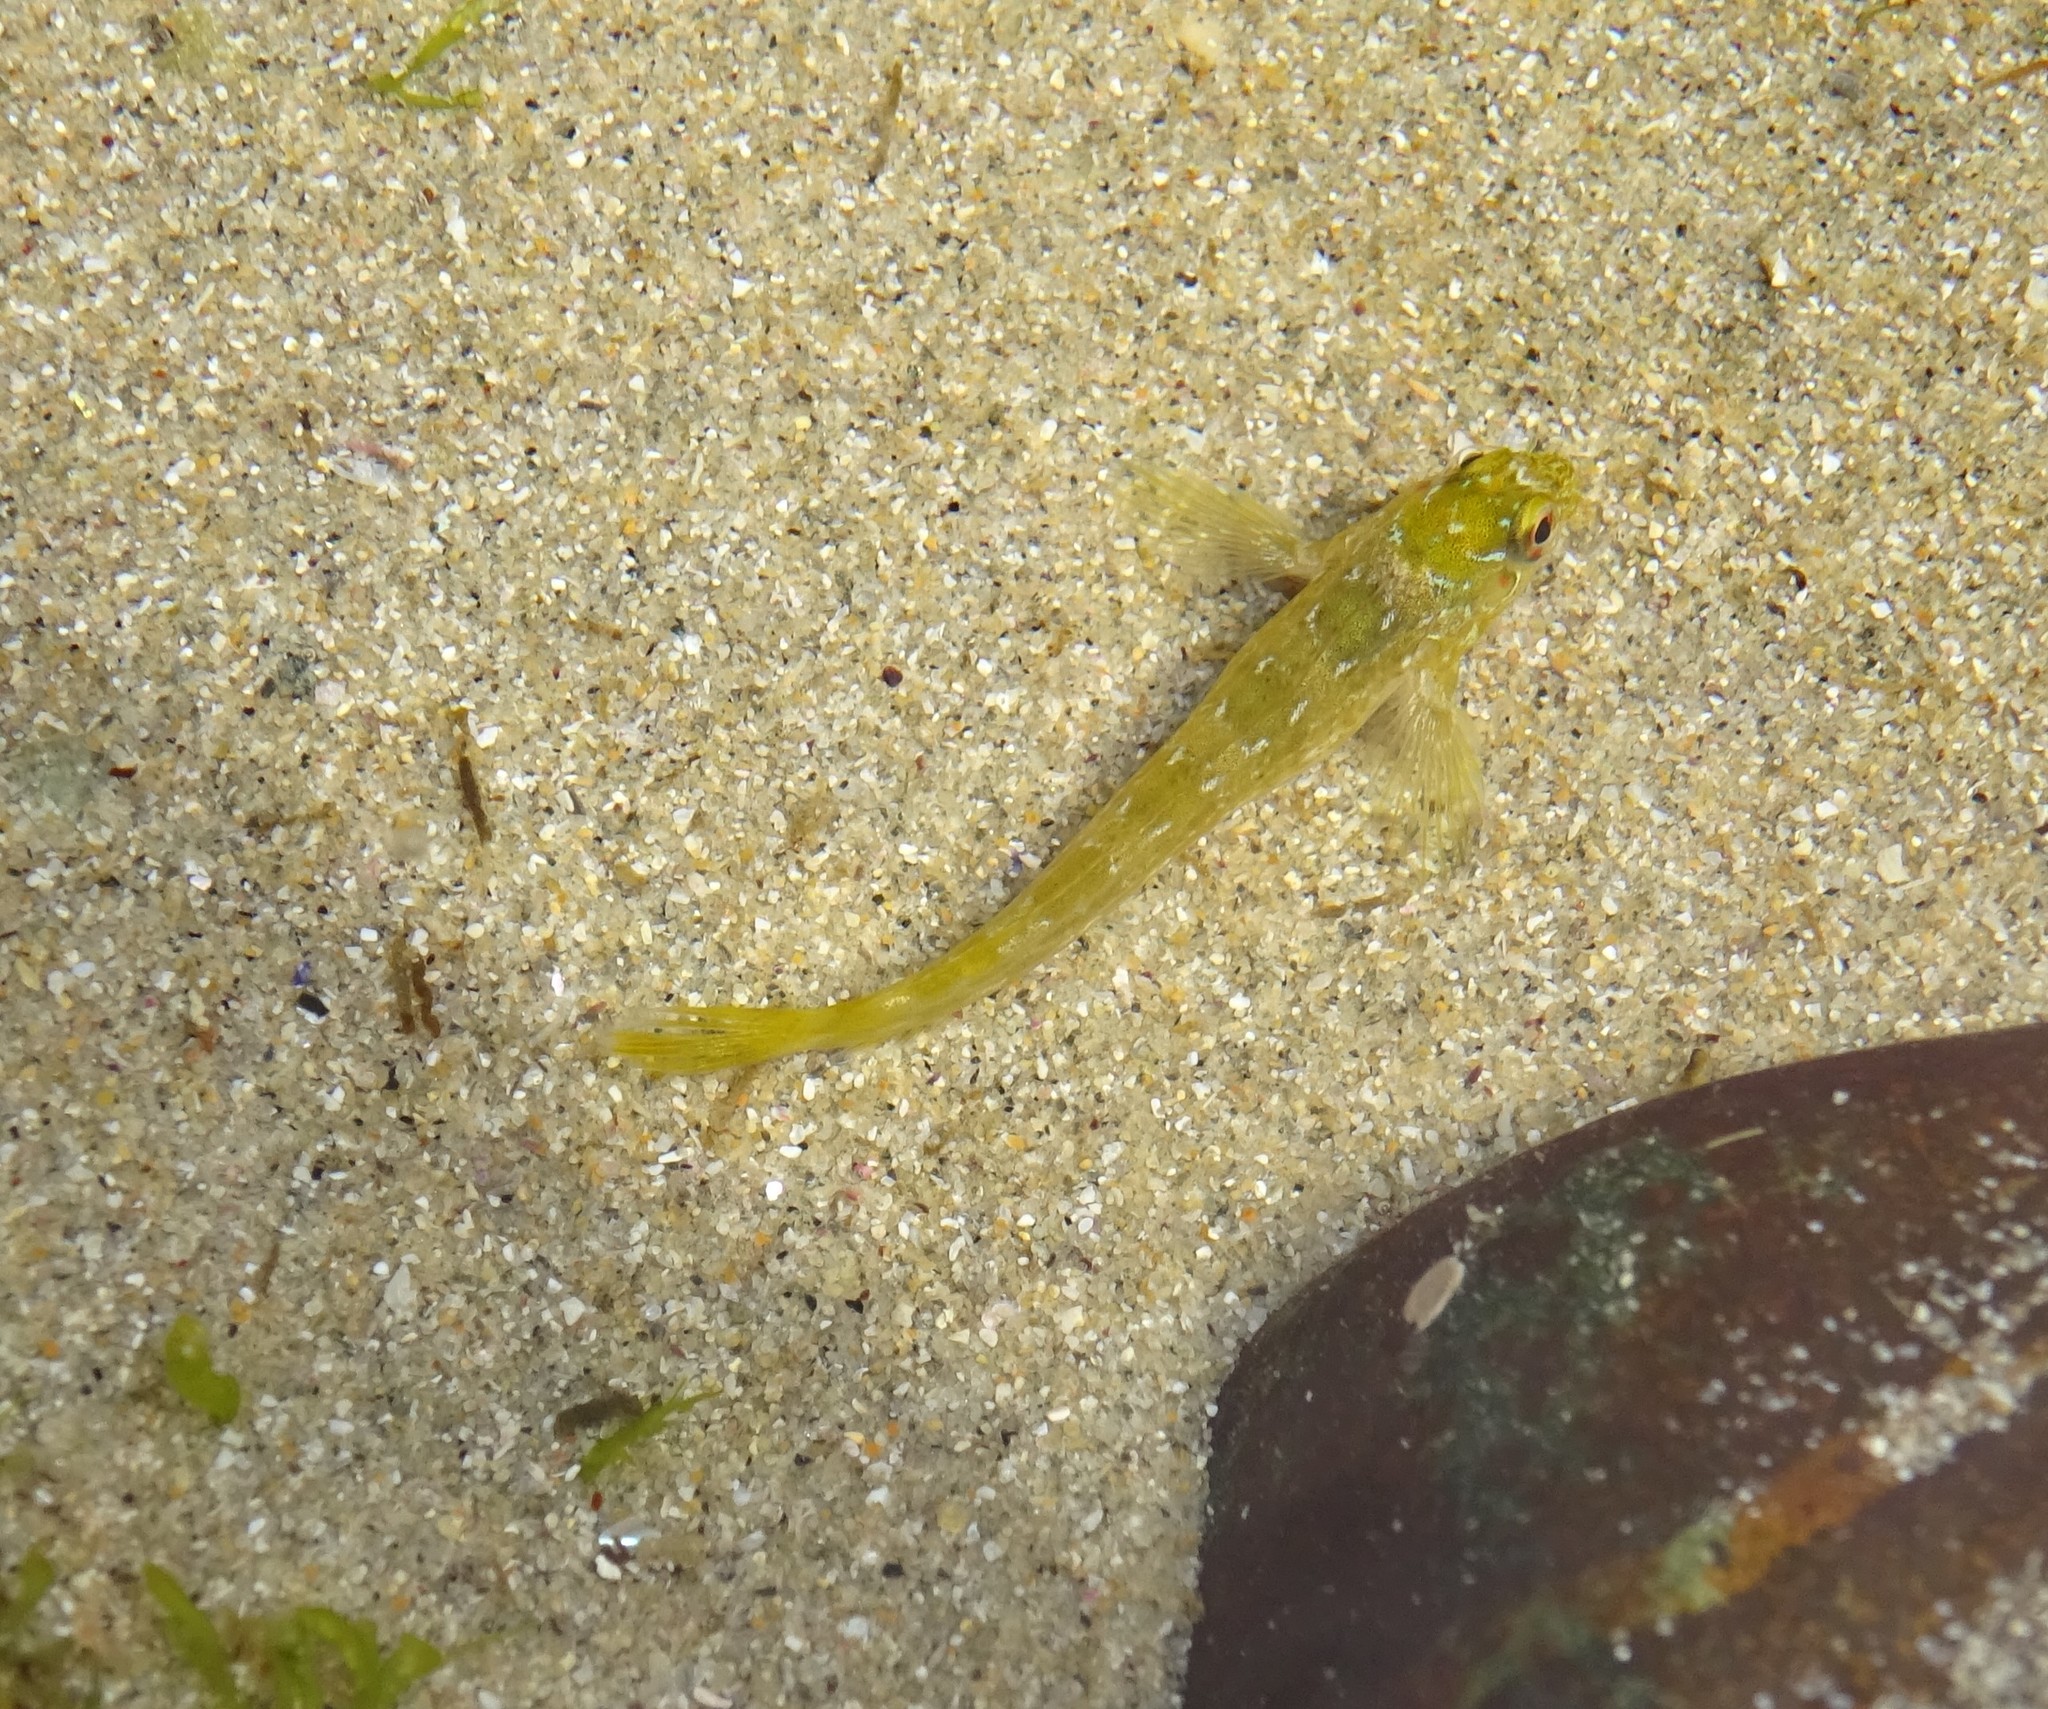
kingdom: Animalia
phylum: Chordata
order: Perciformes
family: Blenniidae
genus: Lipophrys
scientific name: Lipophrys pholis
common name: Shanny
